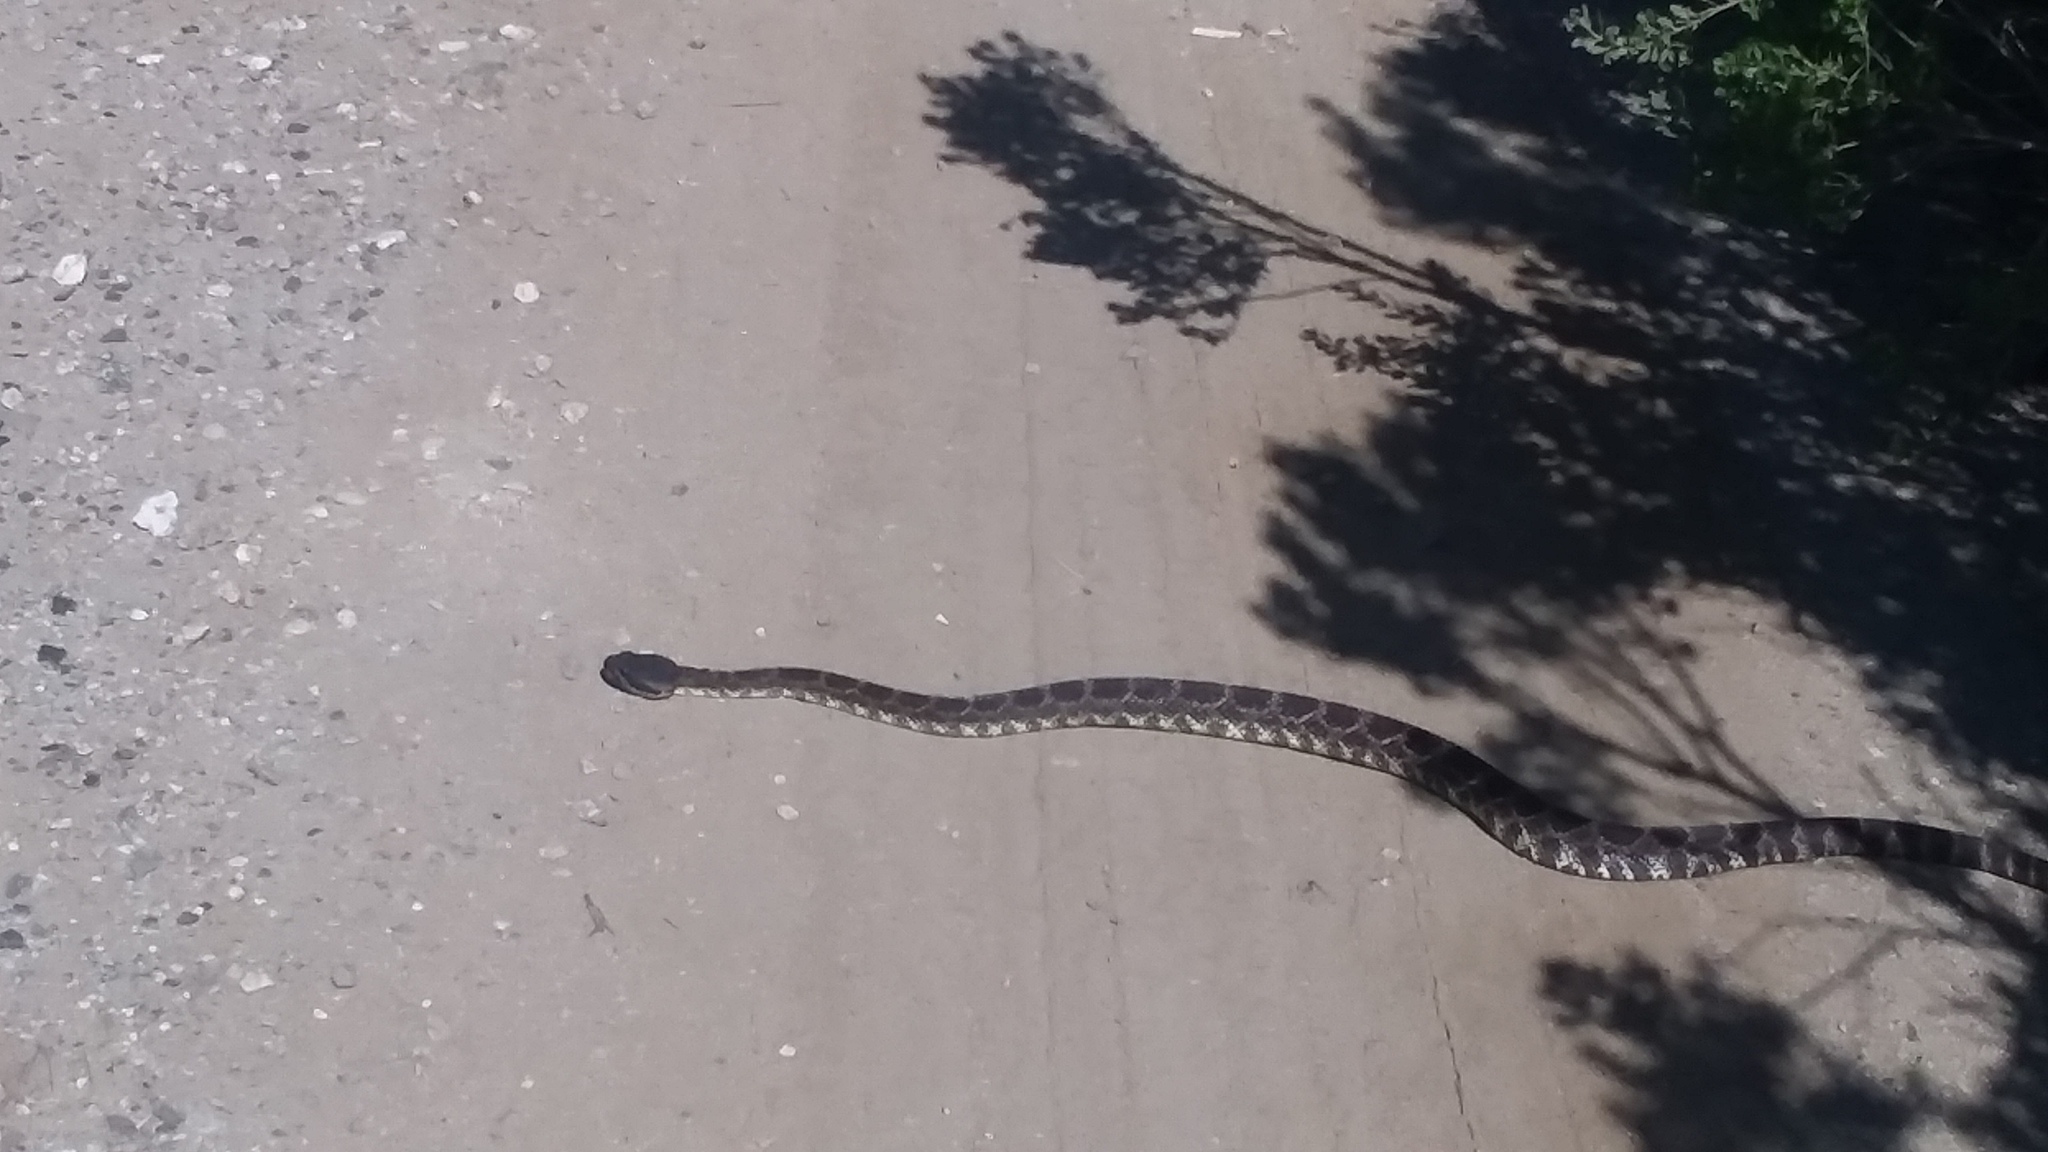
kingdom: Animalia
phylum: Chordata
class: Squamata
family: Viperidae
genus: Crotalus
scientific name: Crotalus oreganus
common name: Abyssus
